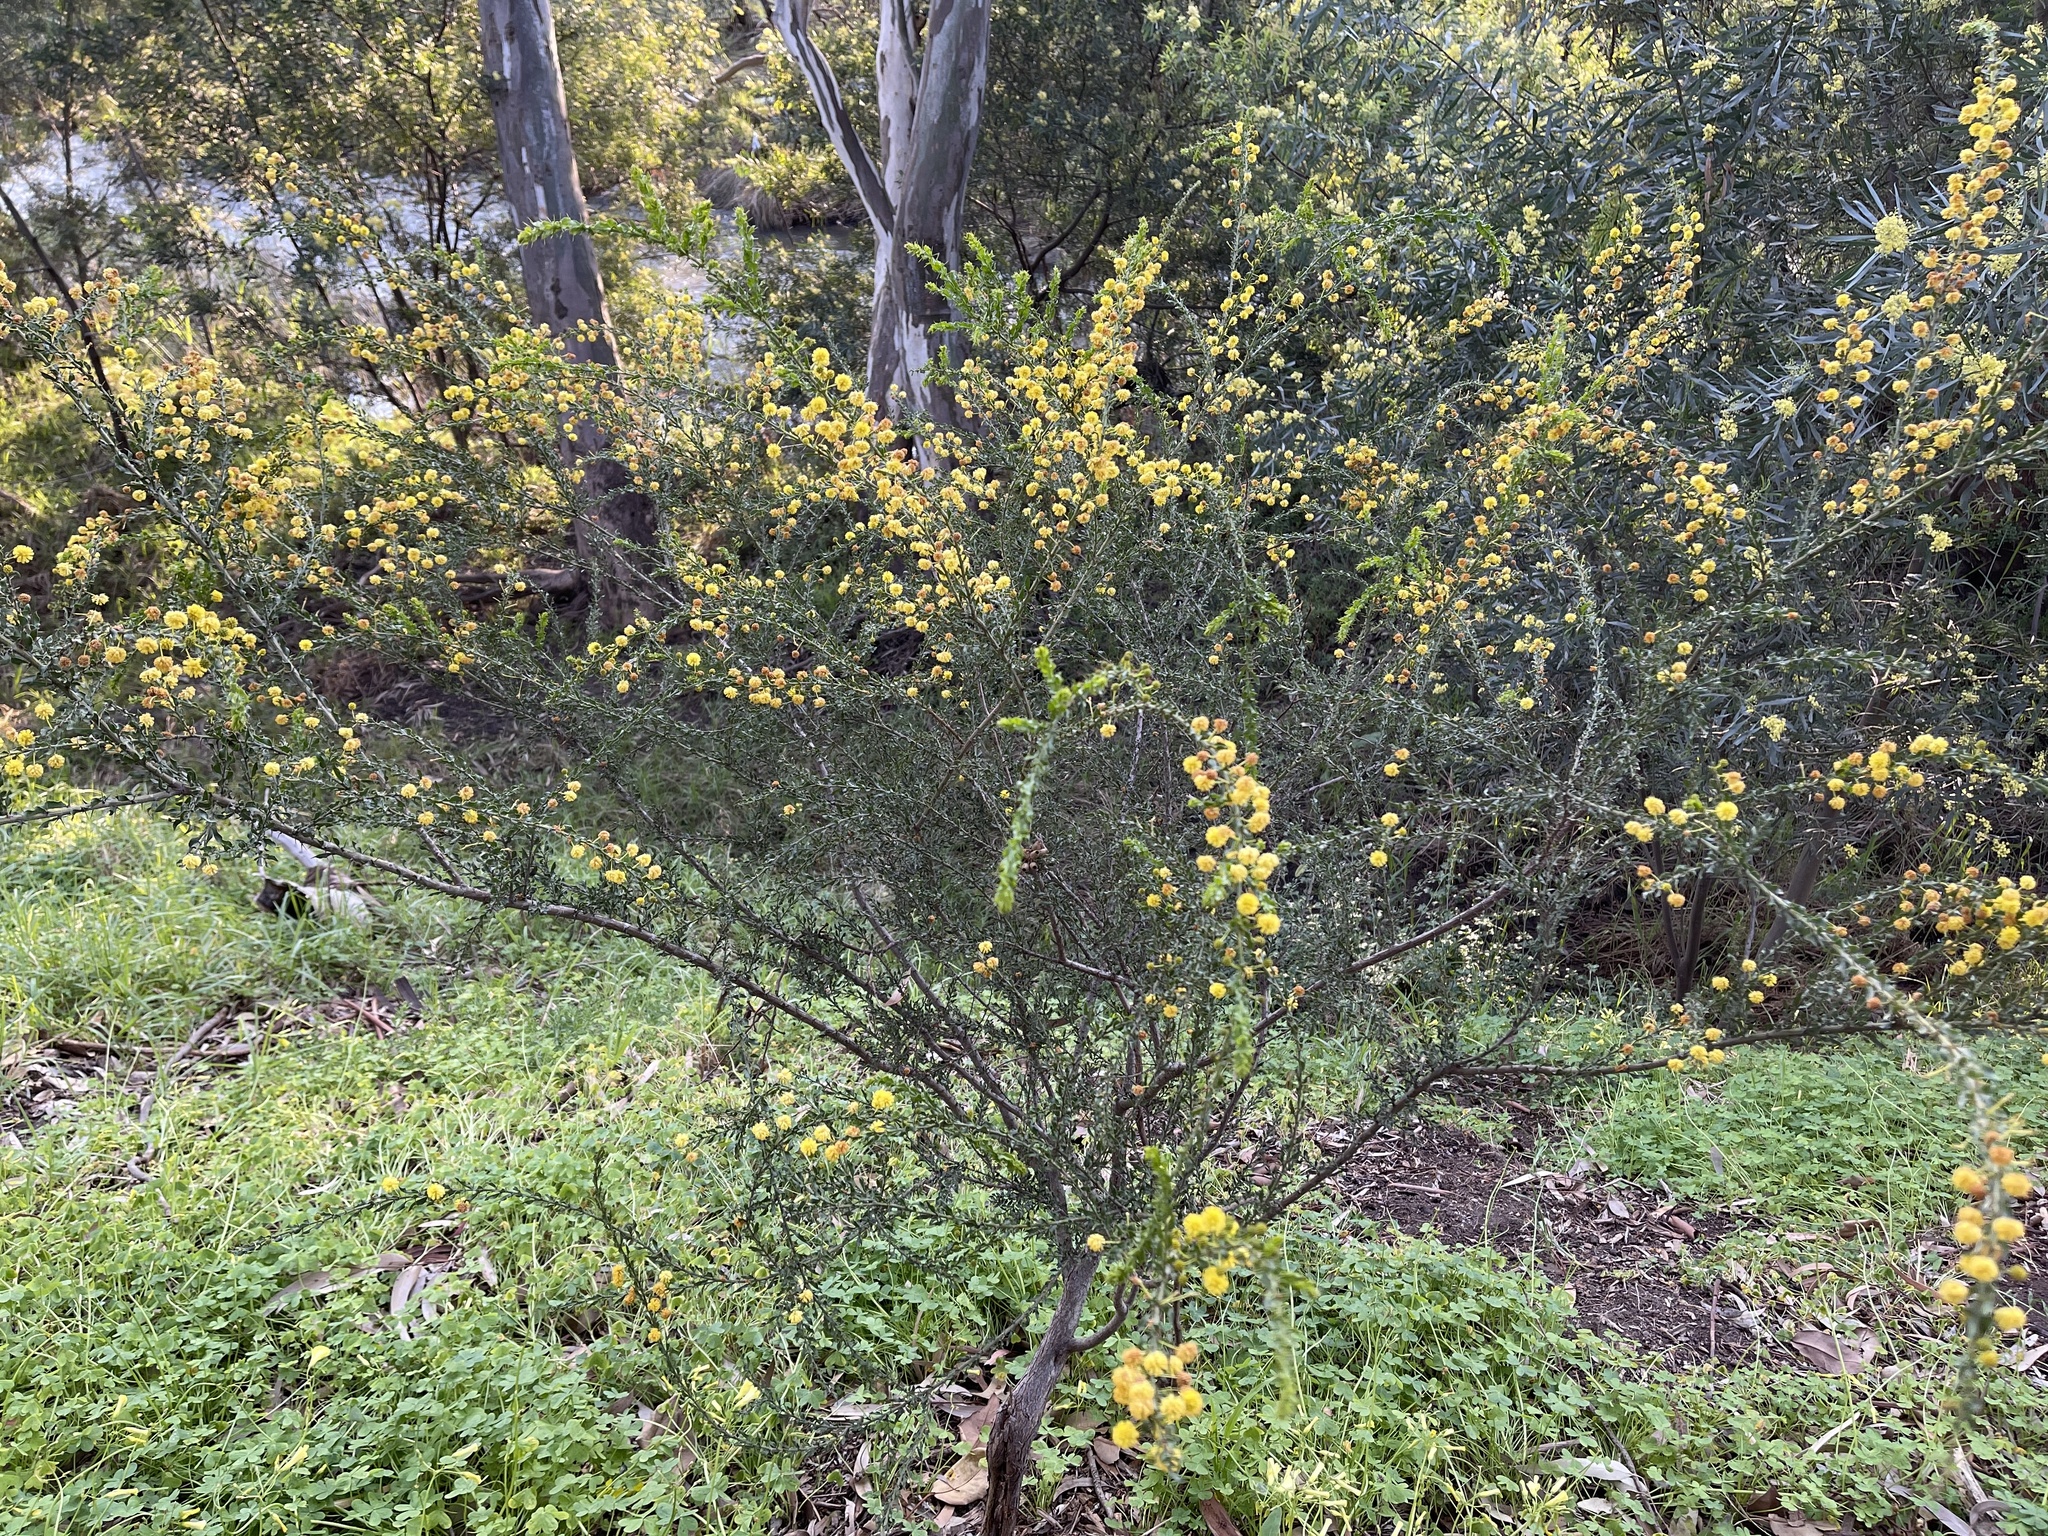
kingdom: Plantae
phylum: Tracheophyta
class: Magnoliopsida
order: Fabales
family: Fabaceae
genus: Acacia
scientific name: Acacia paradoxa
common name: Paradox acacia
